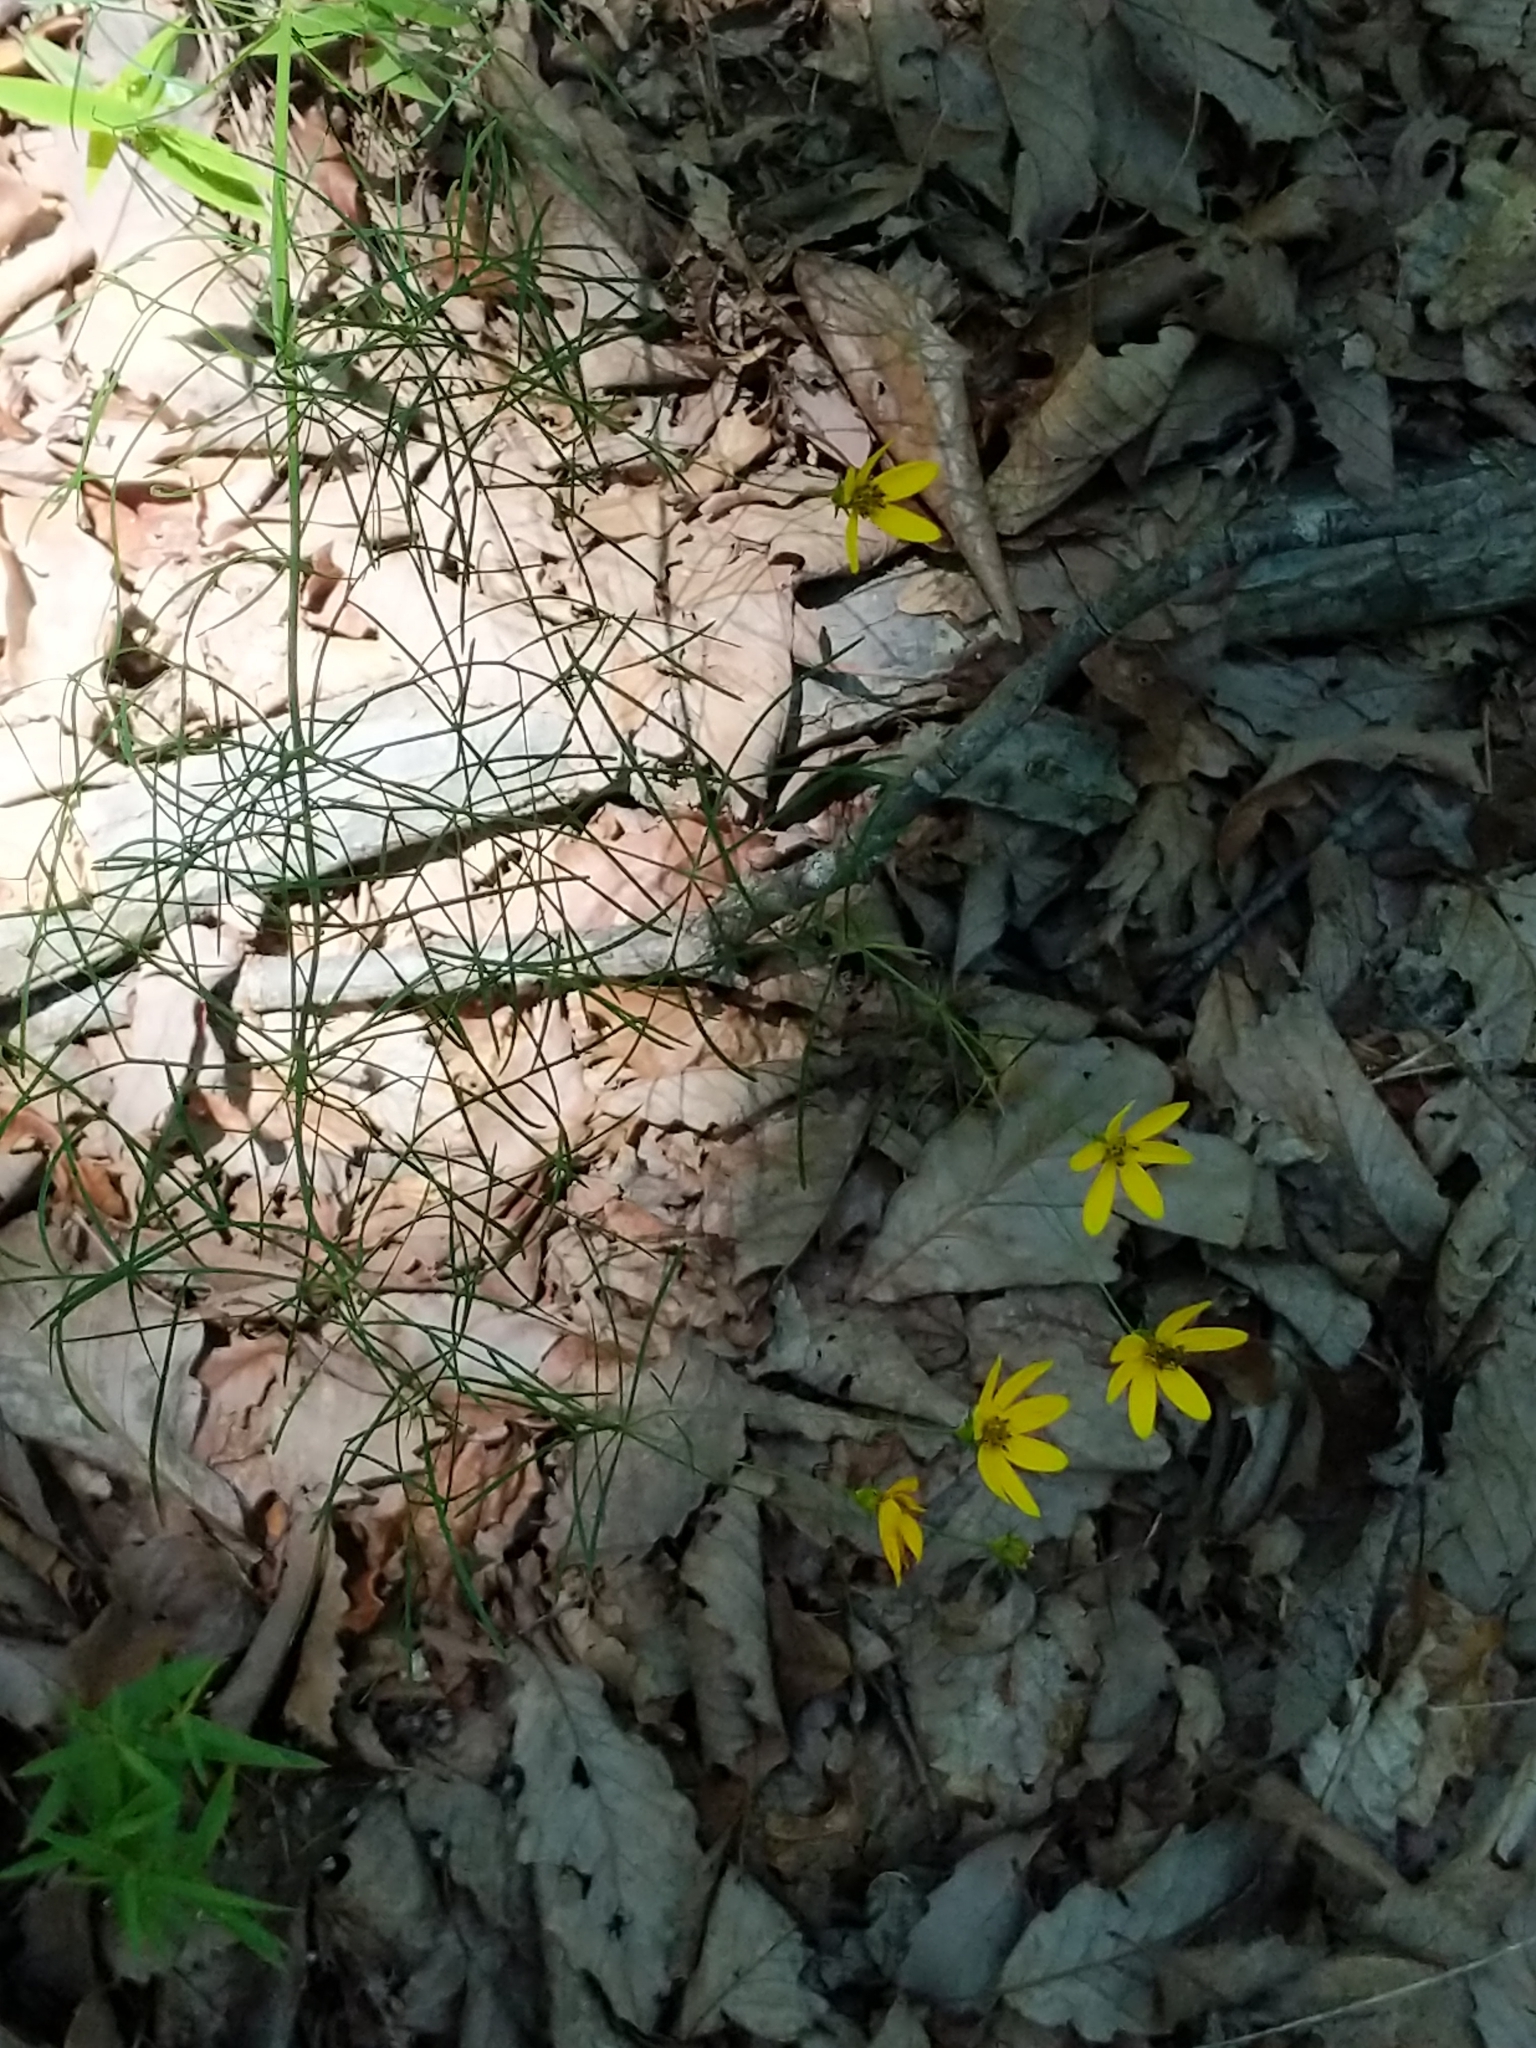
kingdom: Plantae
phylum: Tracheophyta
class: Magnoliopsida
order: Asterales
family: Asteraceae
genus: Coreopsis
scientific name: Coreopsis verticillata
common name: Whorled tickseed
